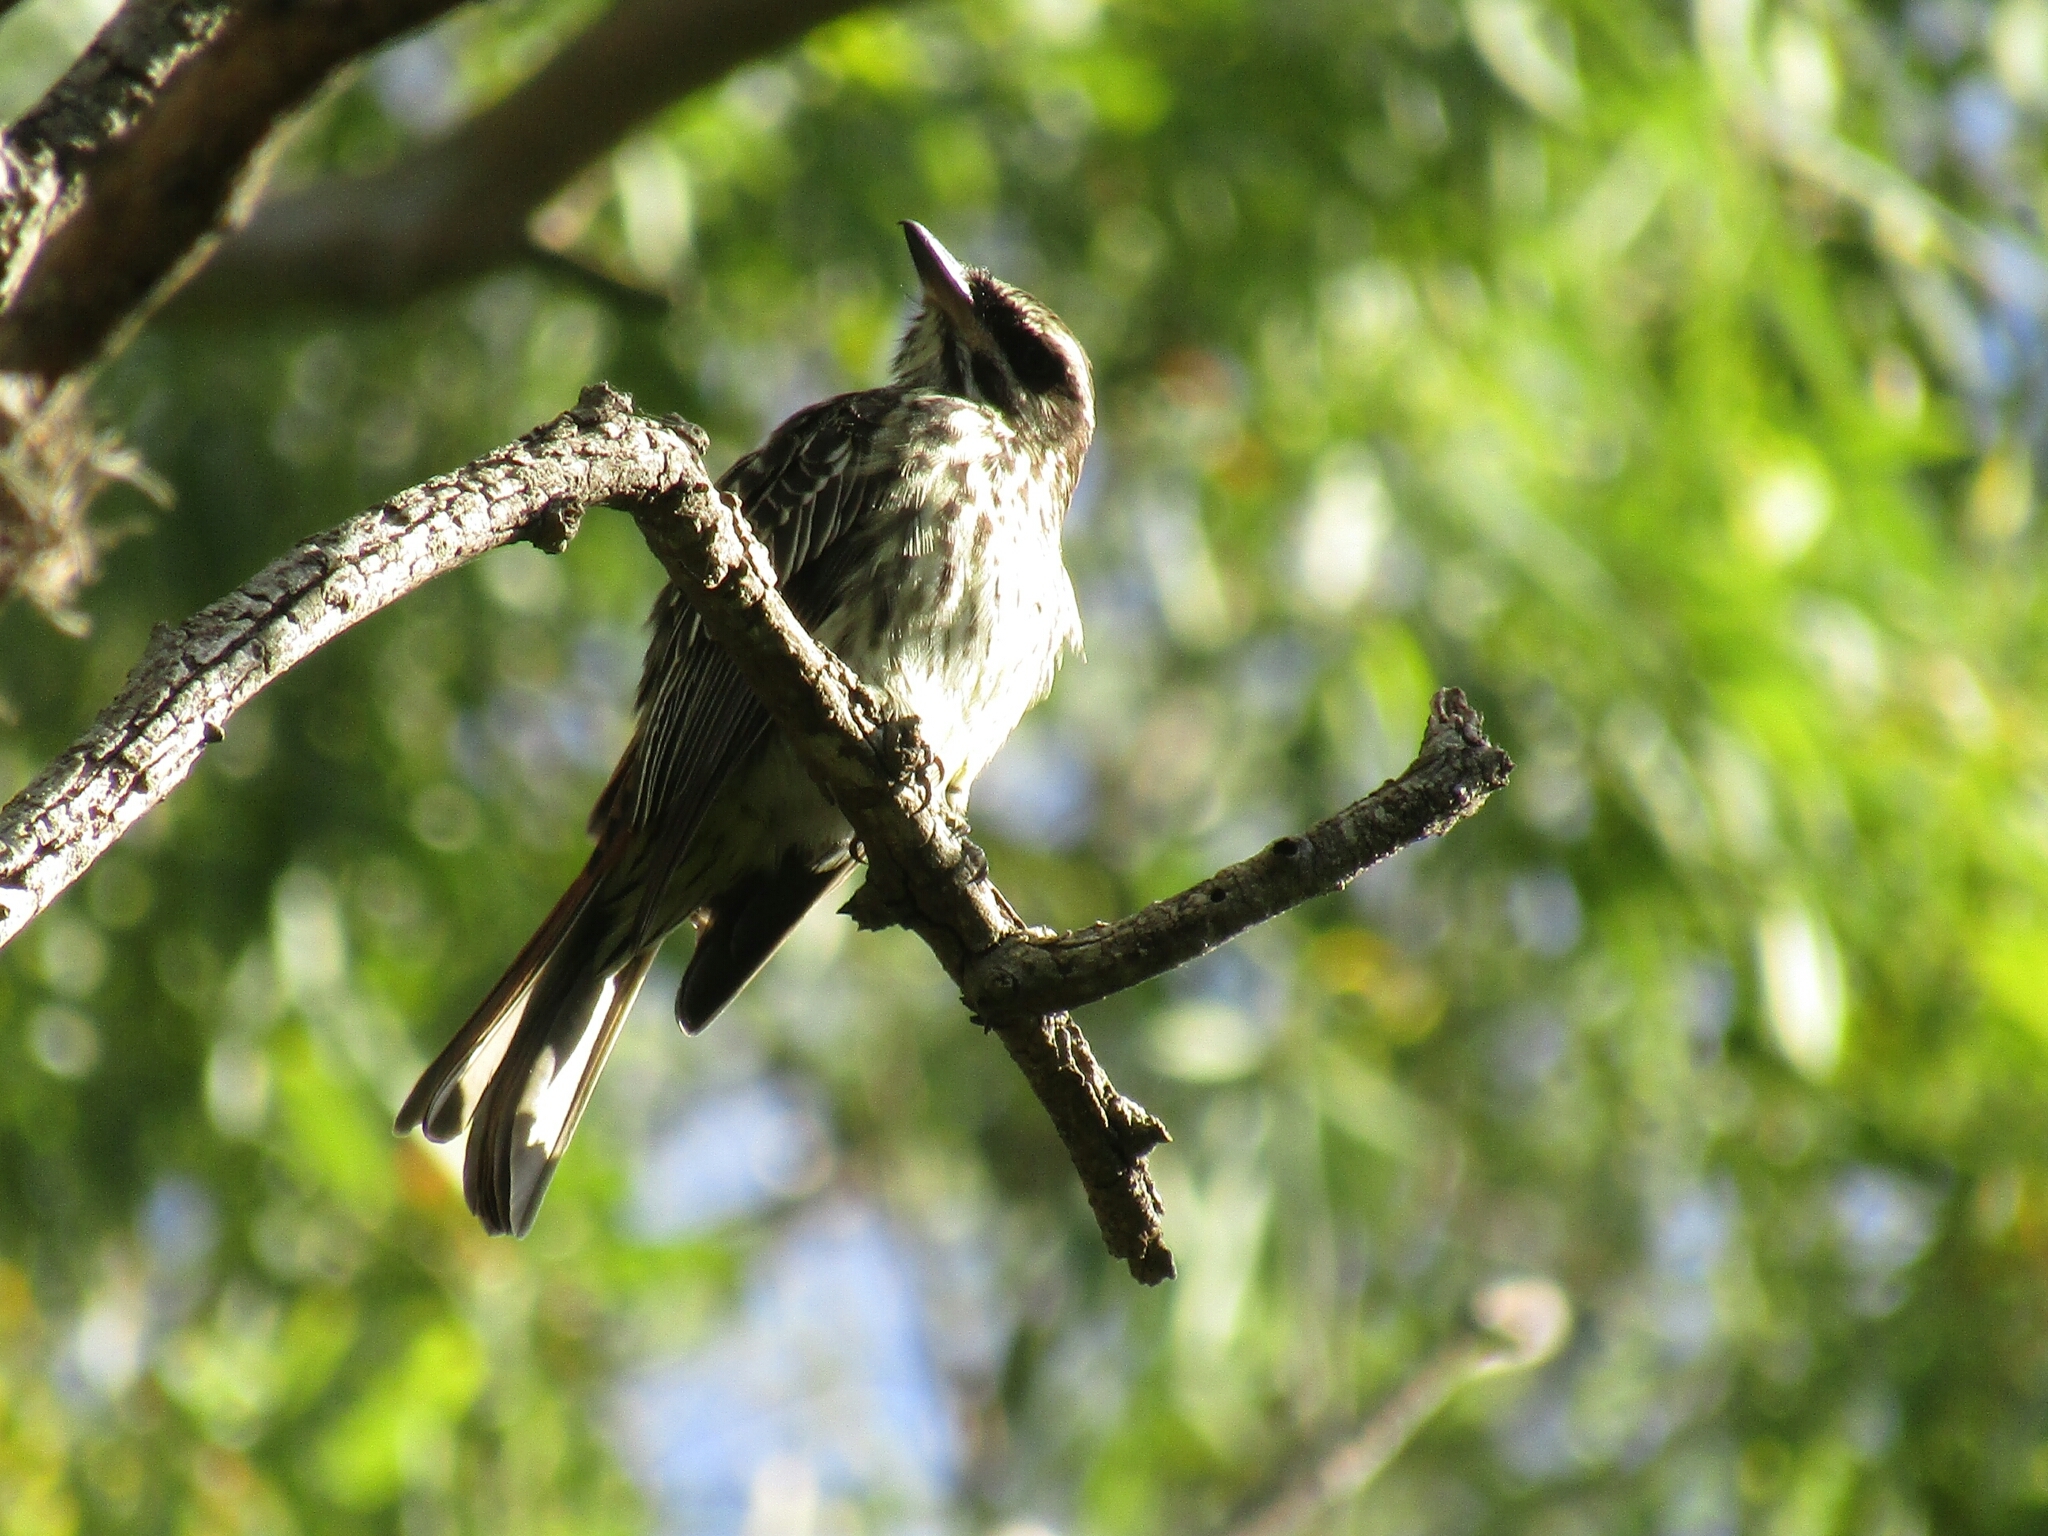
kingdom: Animalia
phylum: Chordata
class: Aves
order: Passeriformes
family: Tyrannidae
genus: Myiodynastes
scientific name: Myiodynastes maculatus
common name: Streaked flycatcher
